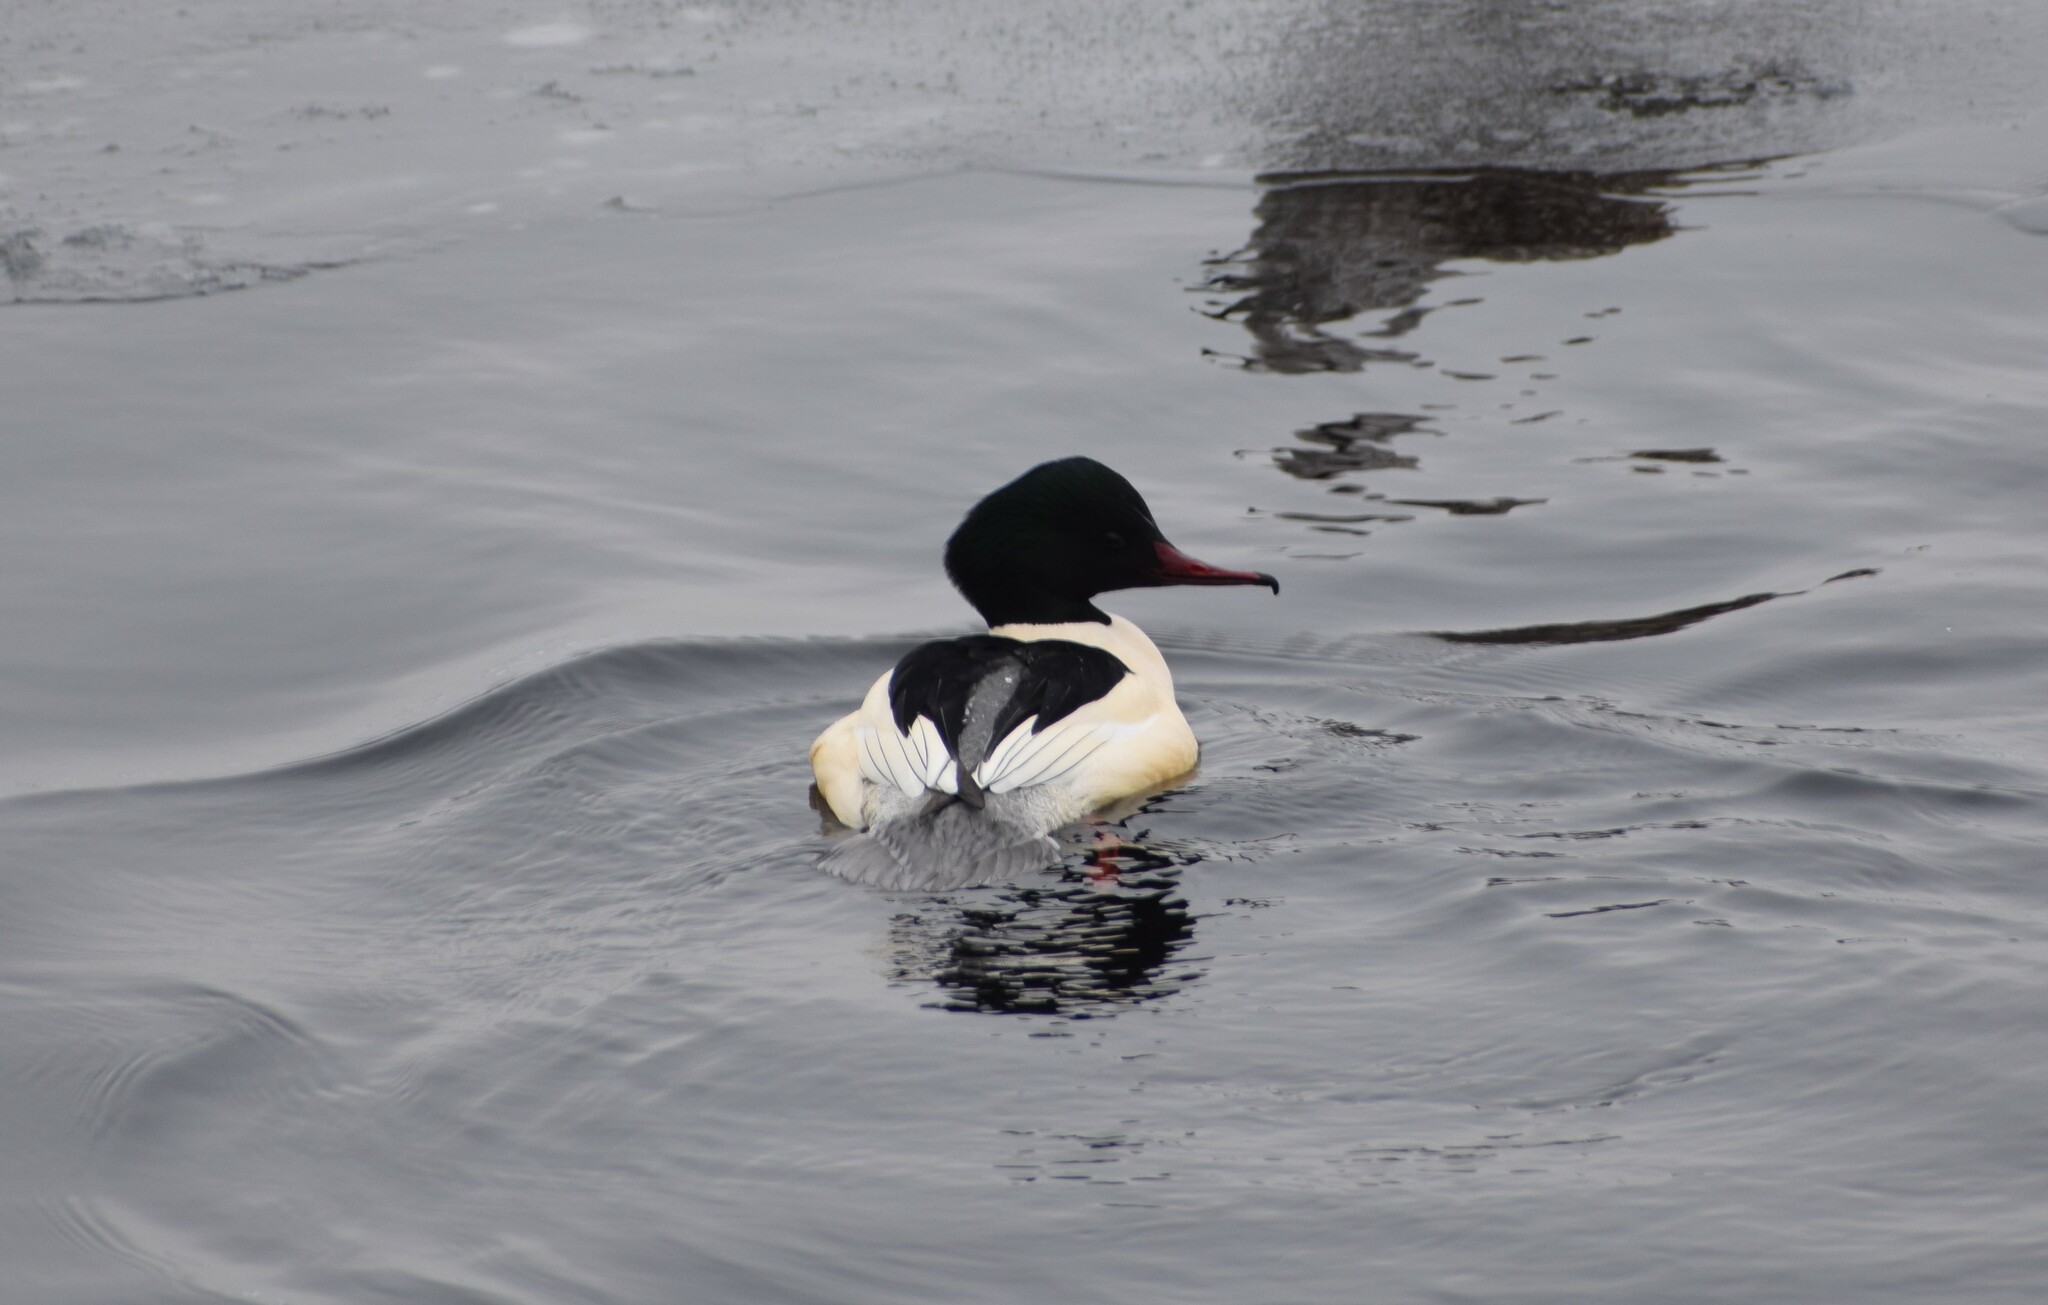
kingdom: Animalia
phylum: Chordata
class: Aves
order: Anseriformes
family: Anatidae
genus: Mergus
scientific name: Mergus merganser
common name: Common merganser
